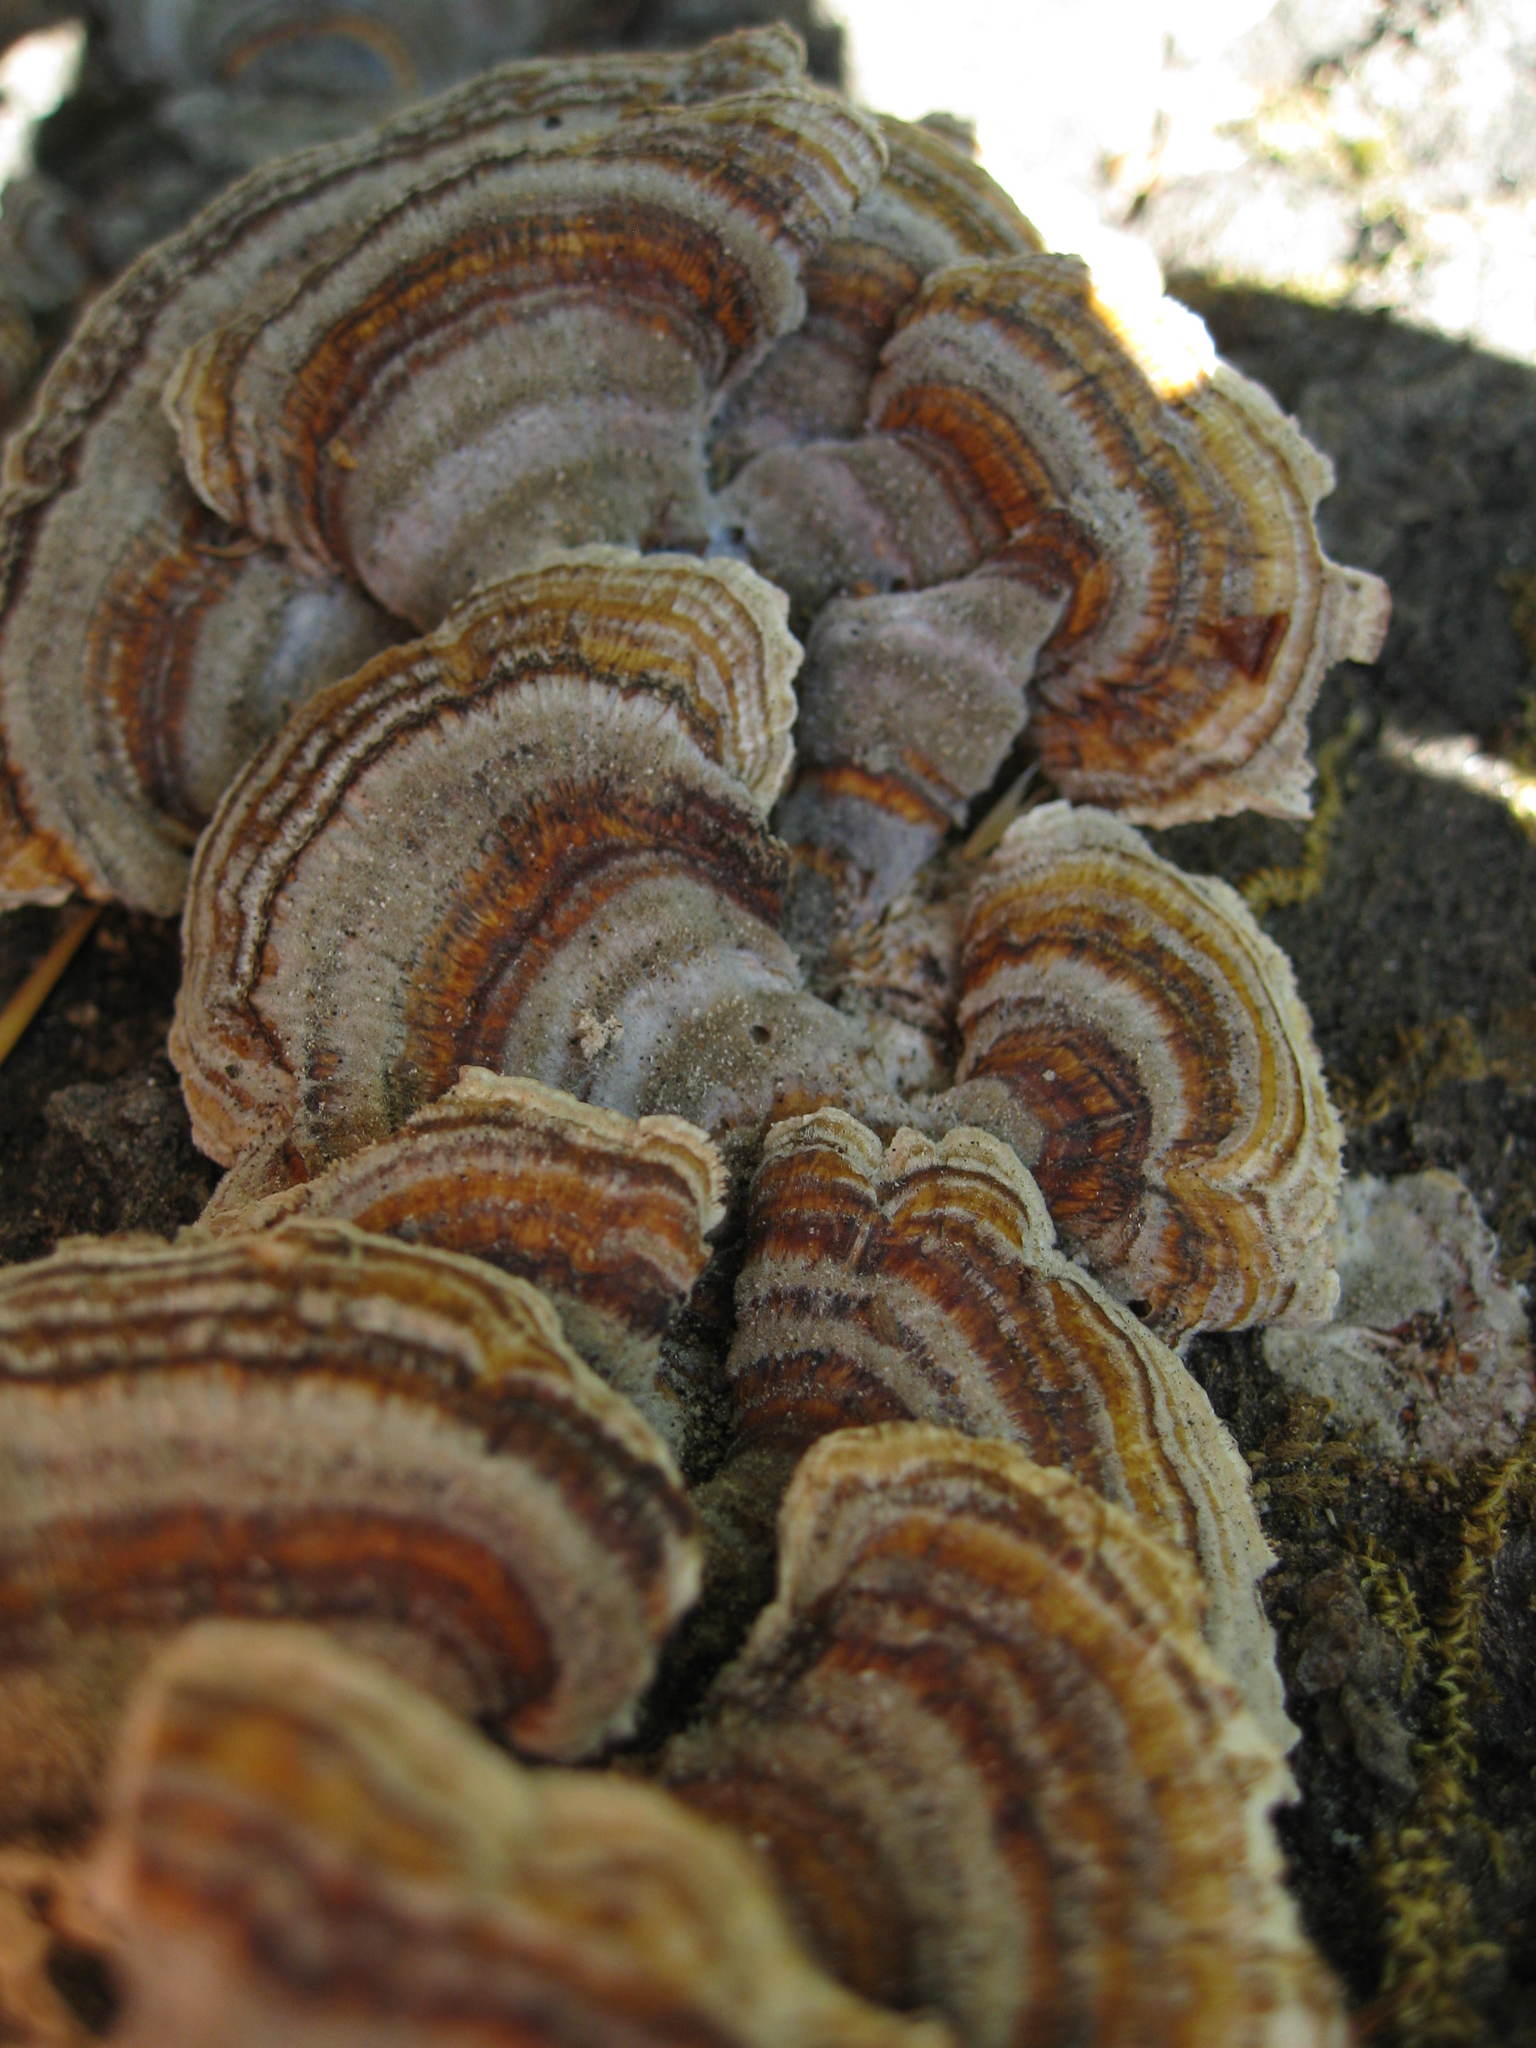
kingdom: Fungi
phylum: Basidiomycota
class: Agaricomycetes
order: Polyporales
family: Polyporaceae
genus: Trametes
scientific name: Trametes versicolor
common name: Turkeytail
